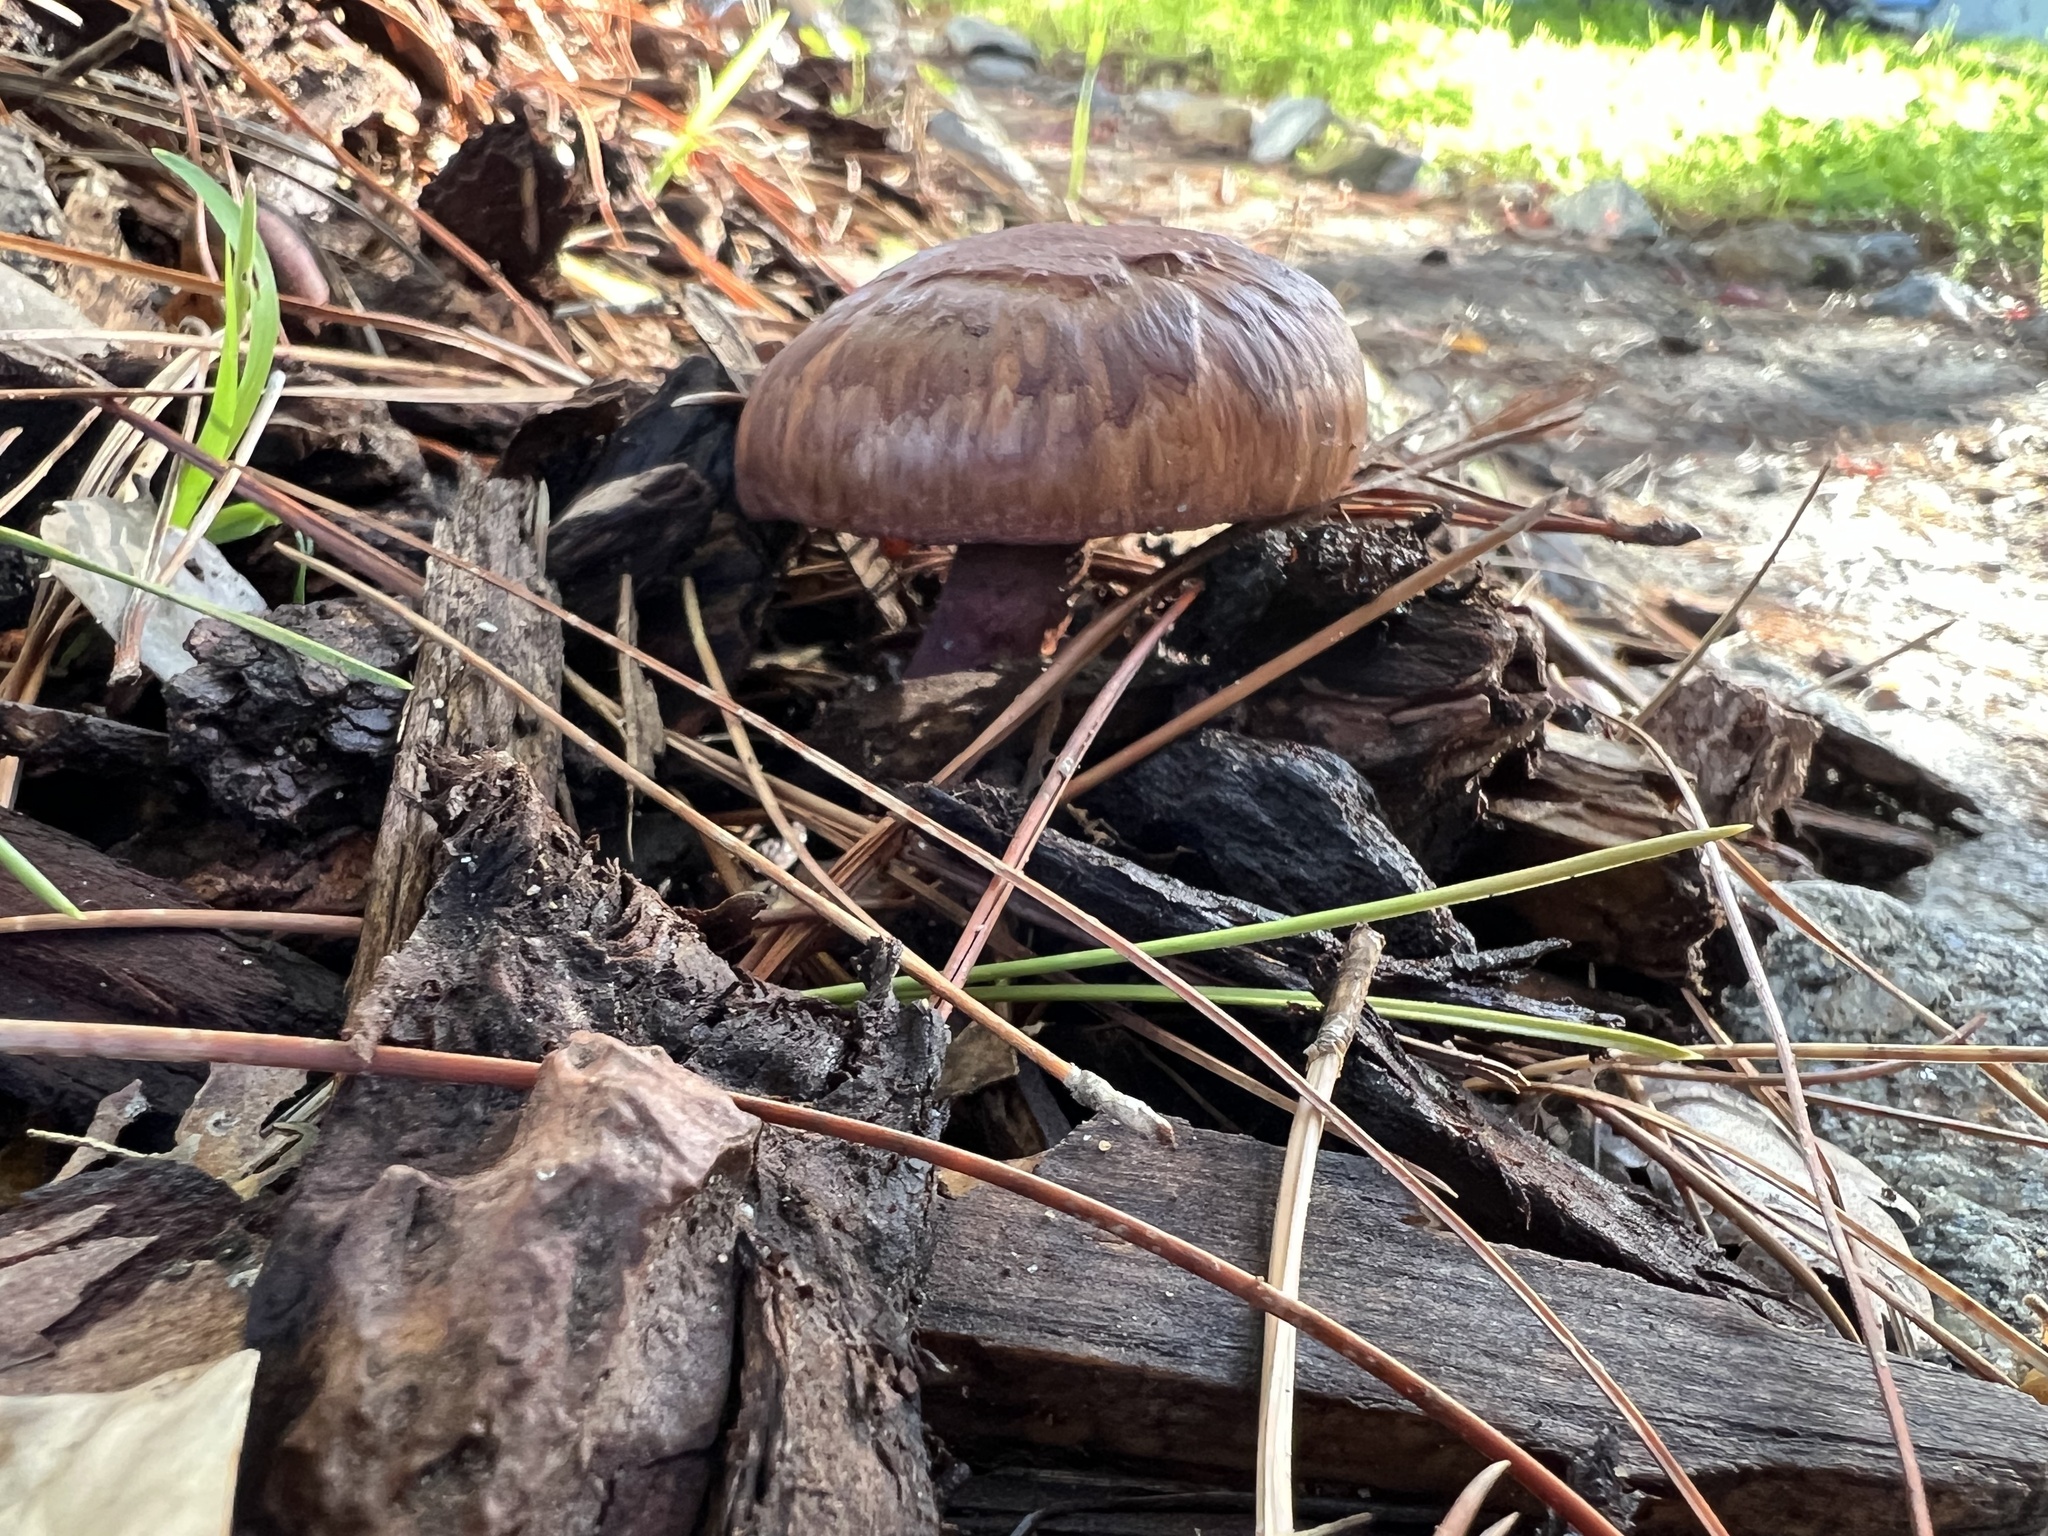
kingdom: Fungi
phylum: Basidiomycota
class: Agaricomycetes
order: Boletales
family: Gomphidiaceae
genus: Chroogomphus
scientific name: Chroogomphus vinicolor
